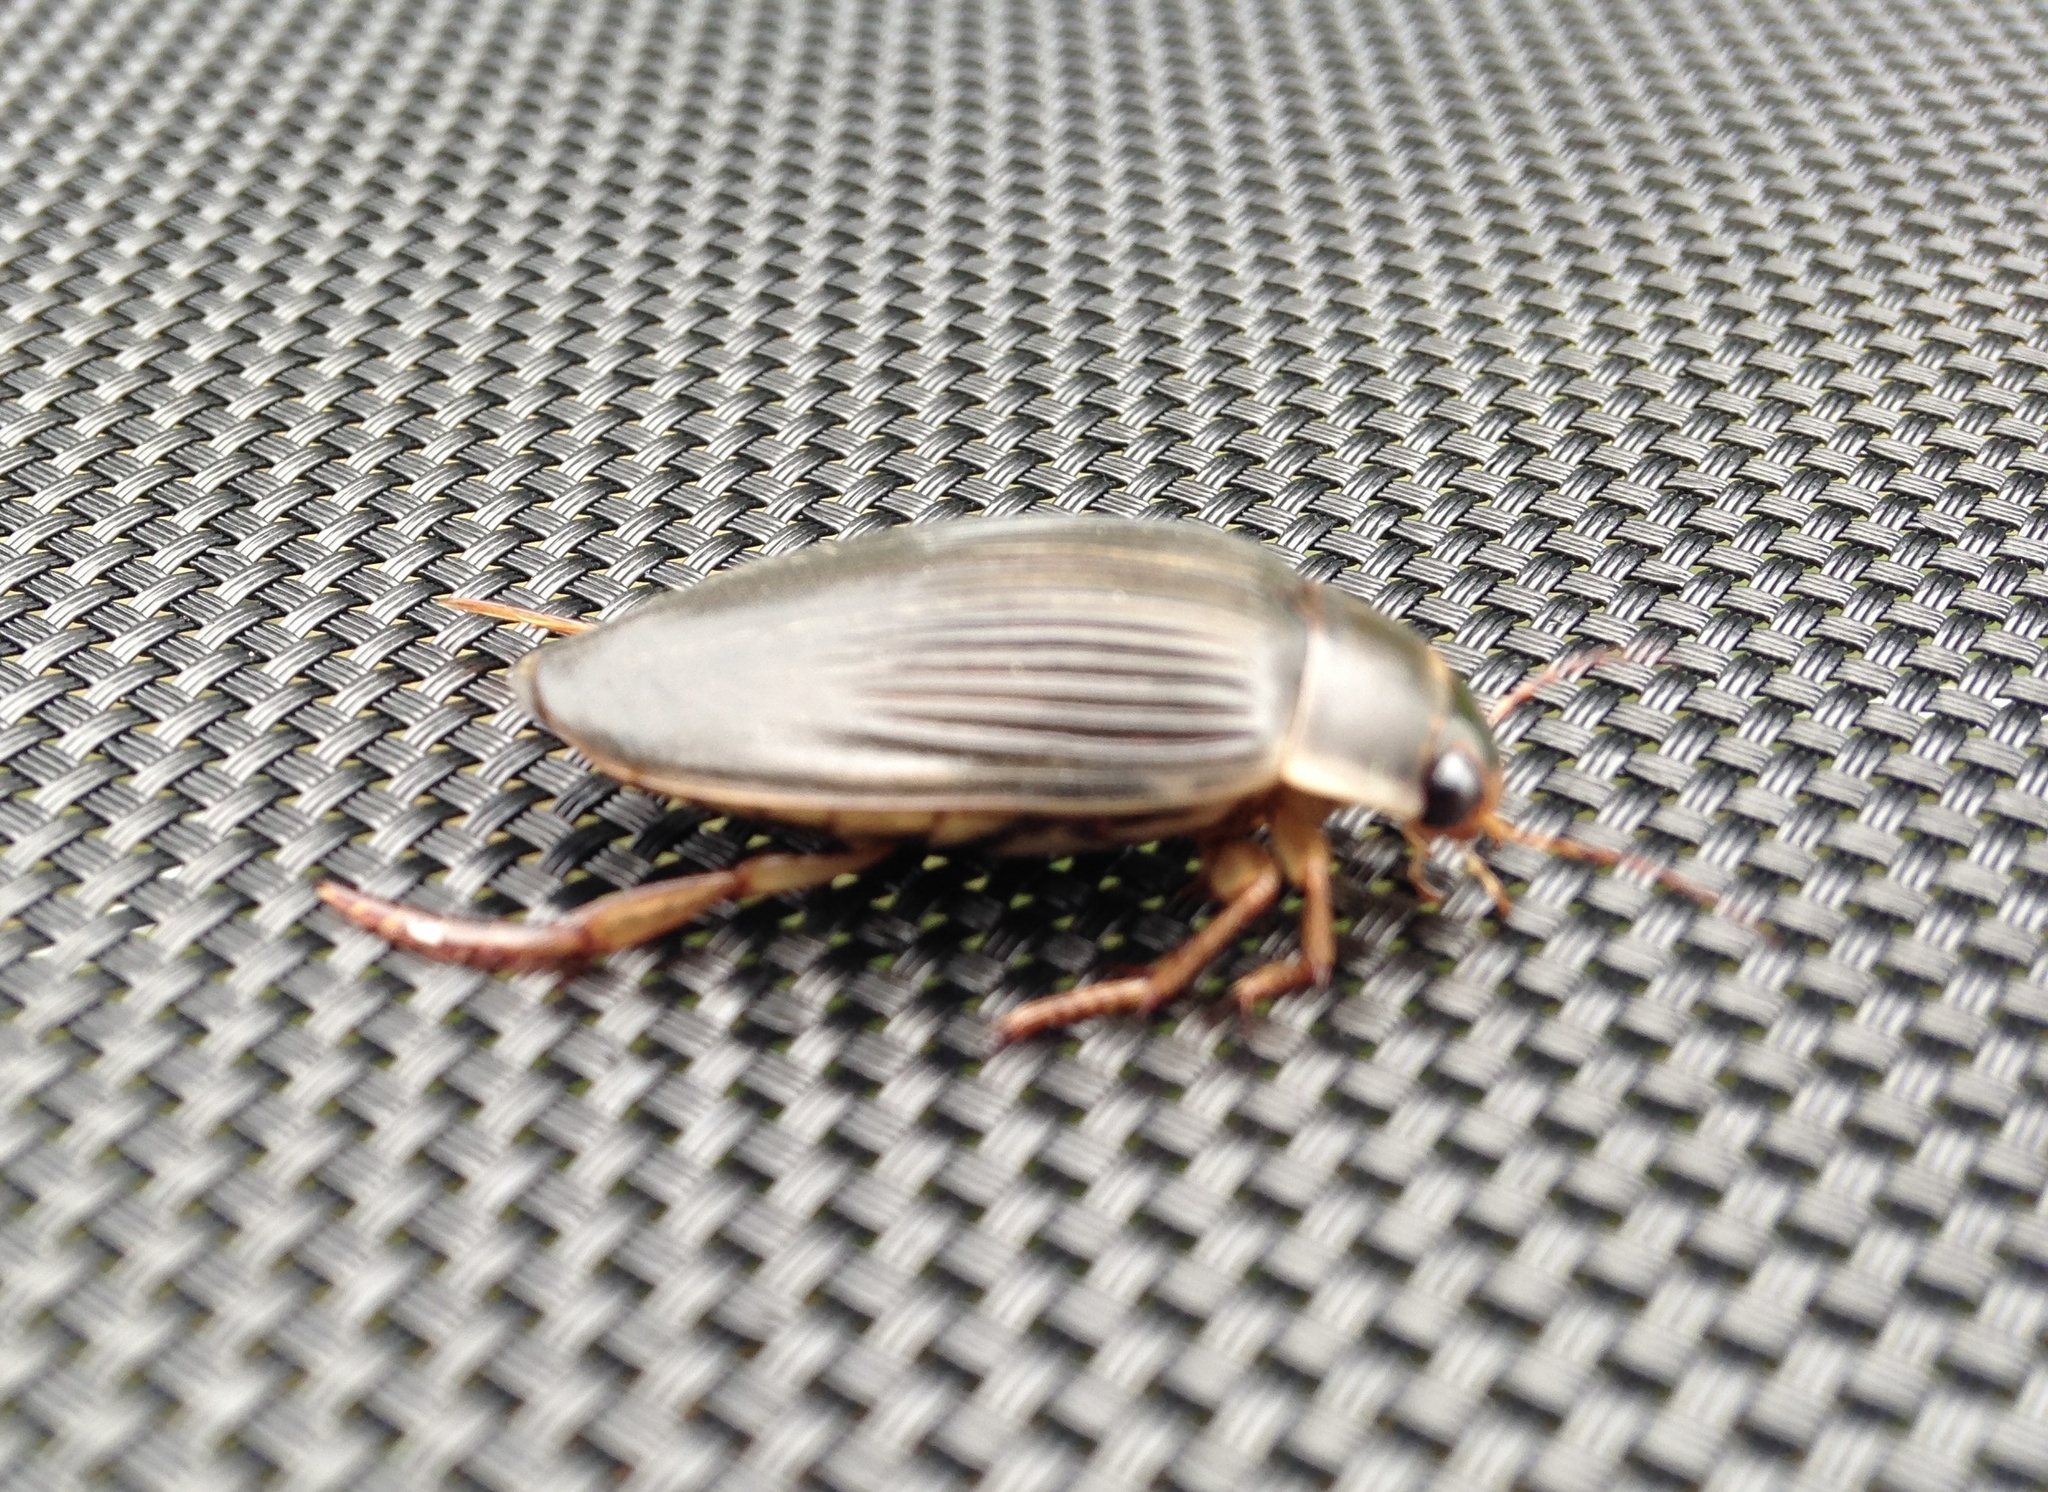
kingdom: Animalia
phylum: Arthropoda
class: Insecta
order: Coleoptera
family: Dytiscidae
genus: Dytiscus
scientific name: Dytiscus
